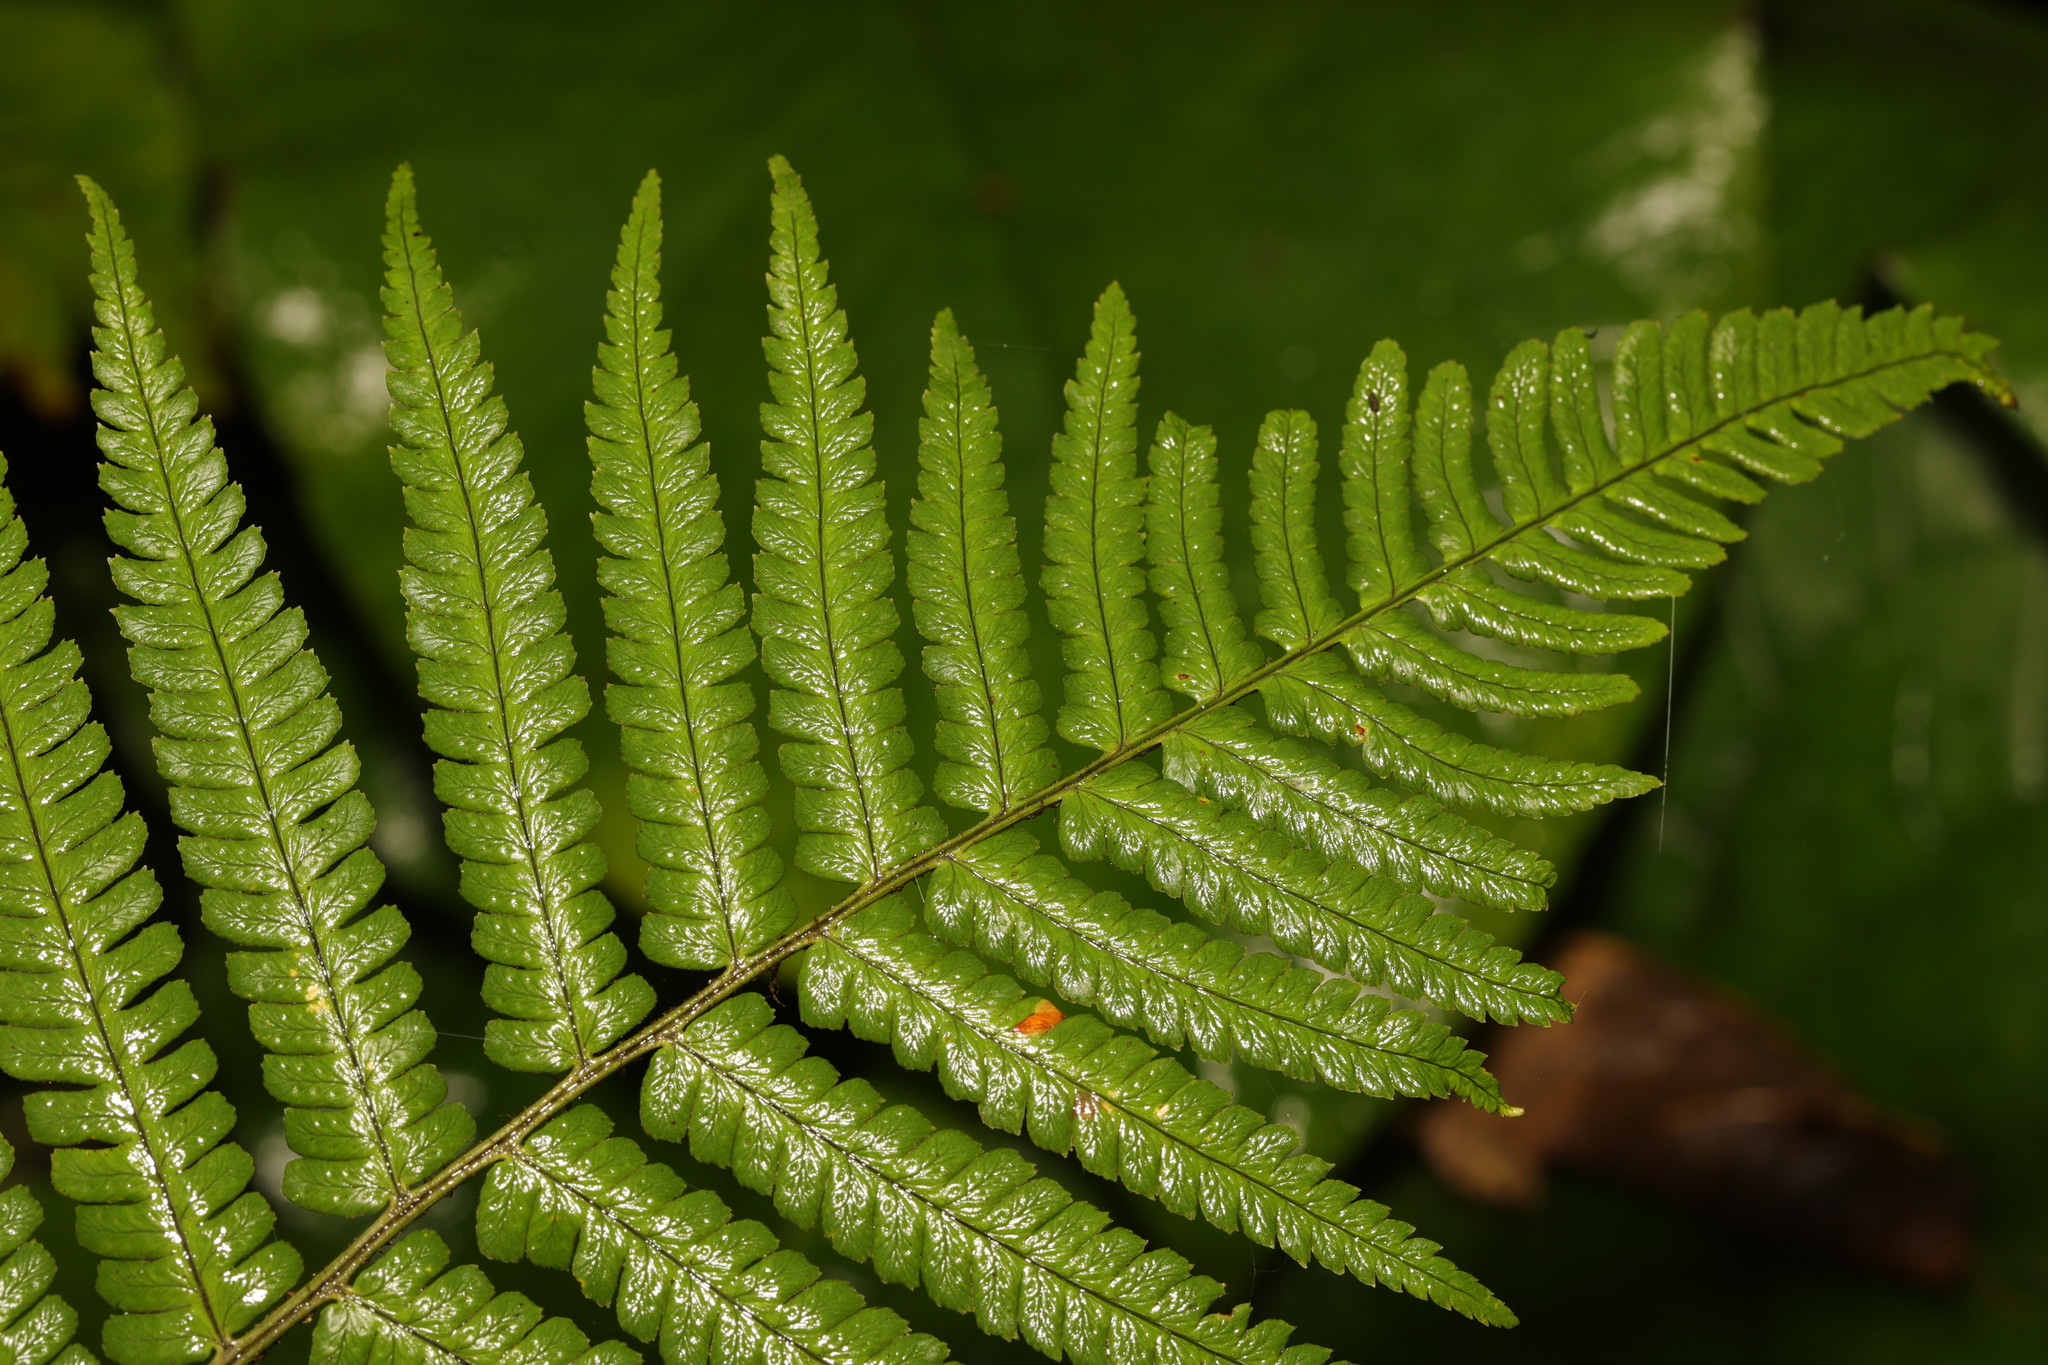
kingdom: Plantae
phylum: Tracheophyta
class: Polypodiopsida
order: Polypodiales
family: Dryopteridaceae
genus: Dryopteris
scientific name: Dryopteris filix-mas
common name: Male fern
